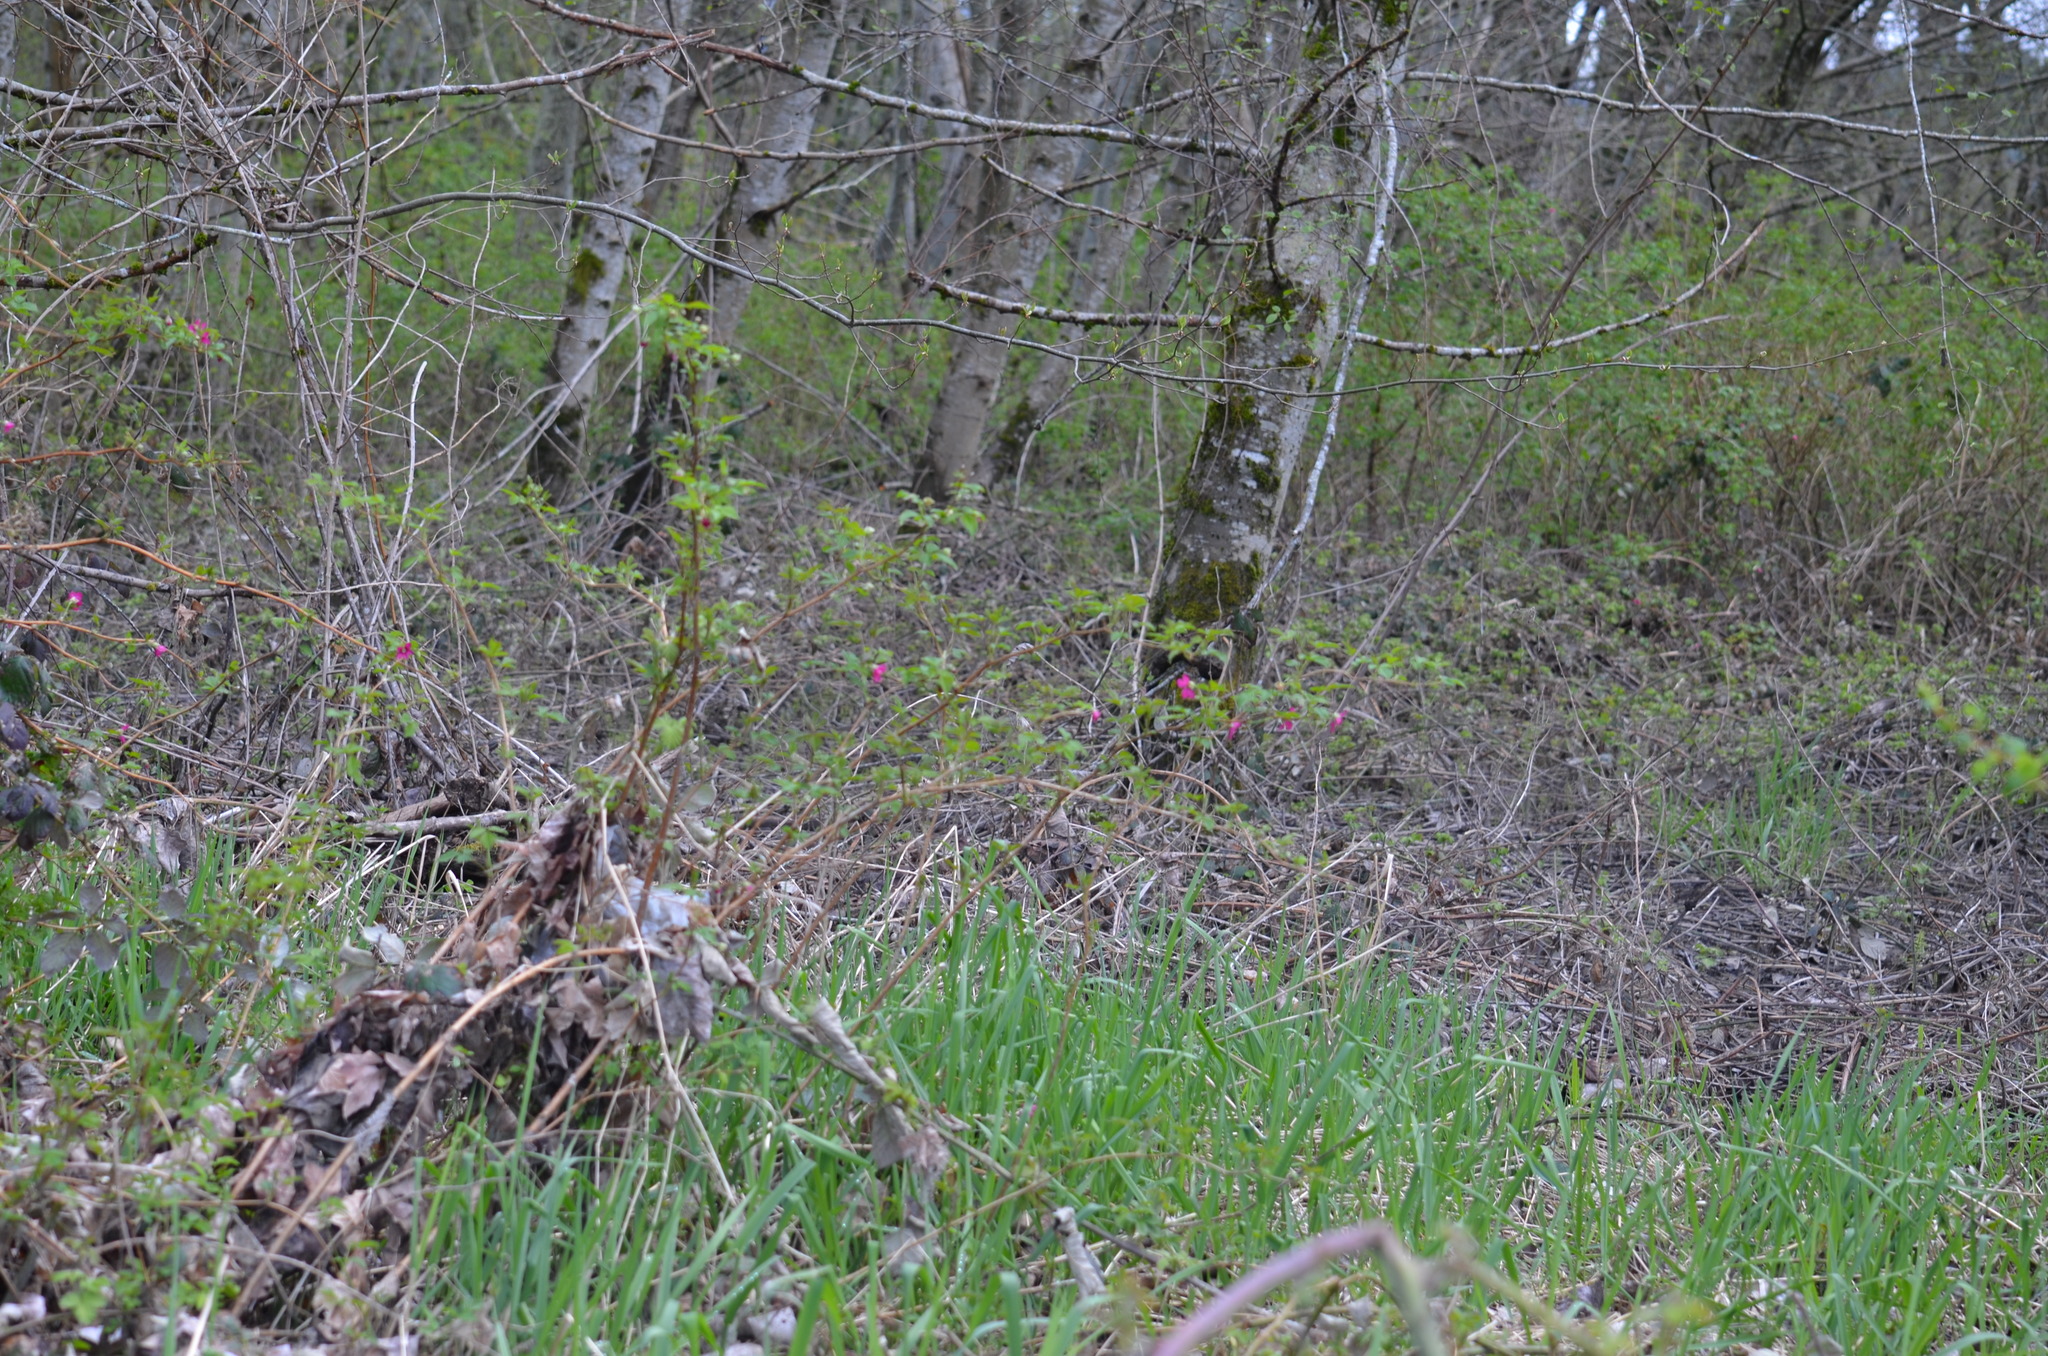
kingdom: Plantae
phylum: Tracheophyta
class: Magnoliopsida
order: Rosales
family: Rosaceae
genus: Rubus
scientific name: Rubus spectabilis
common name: Salmonberry
